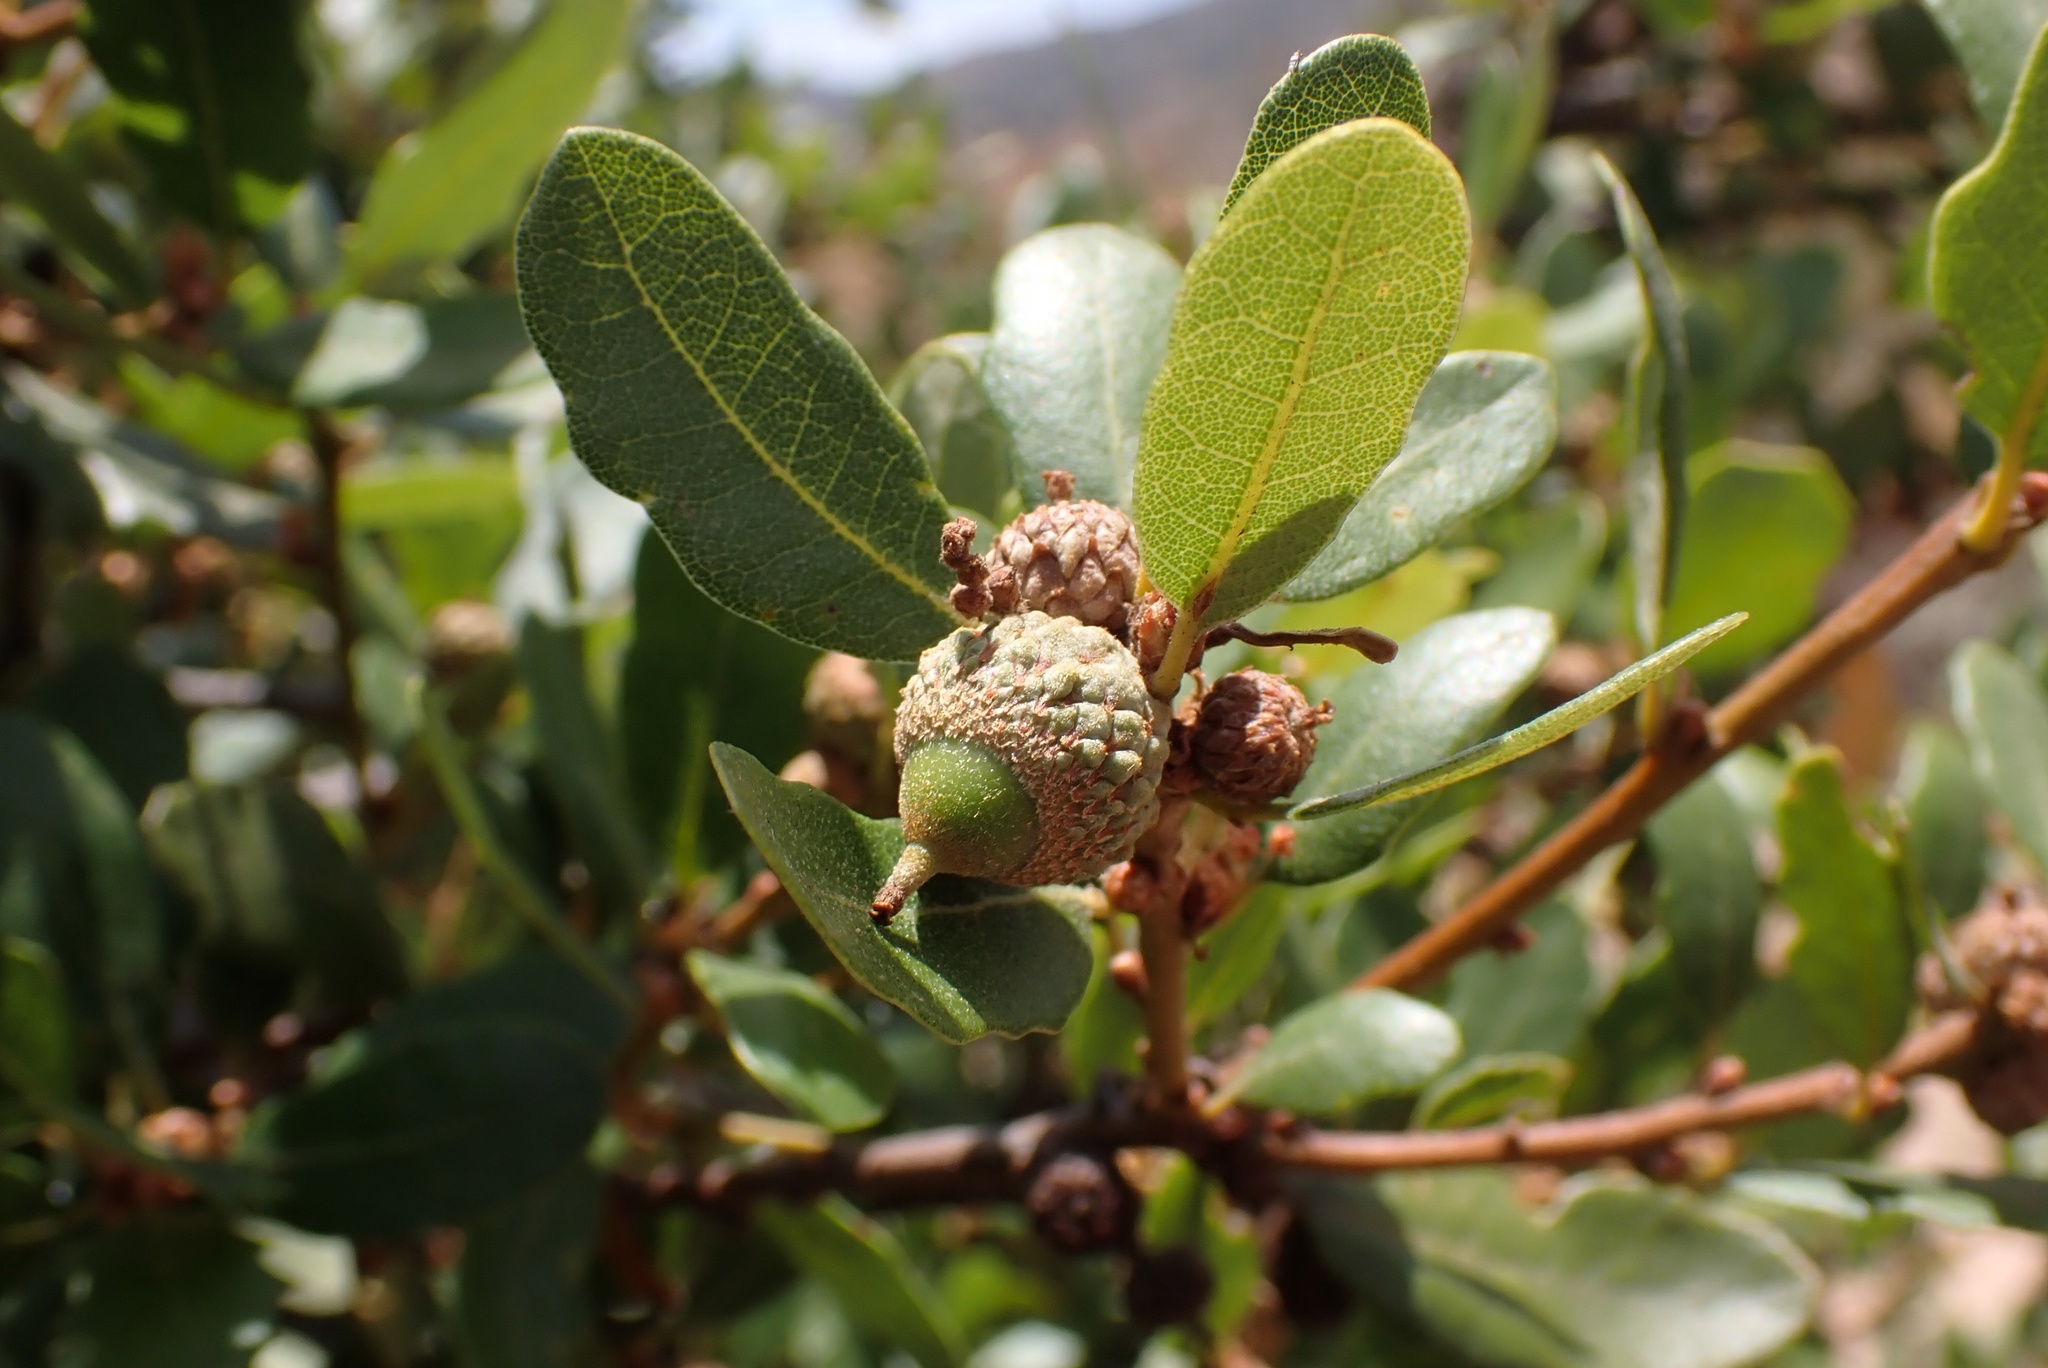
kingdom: Plantae
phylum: Tracheophyta
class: Magnoliopsida
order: Fagales
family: Fagaceae
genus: Quercus
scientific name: Quercus berberidifolia
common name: California scrub oak
